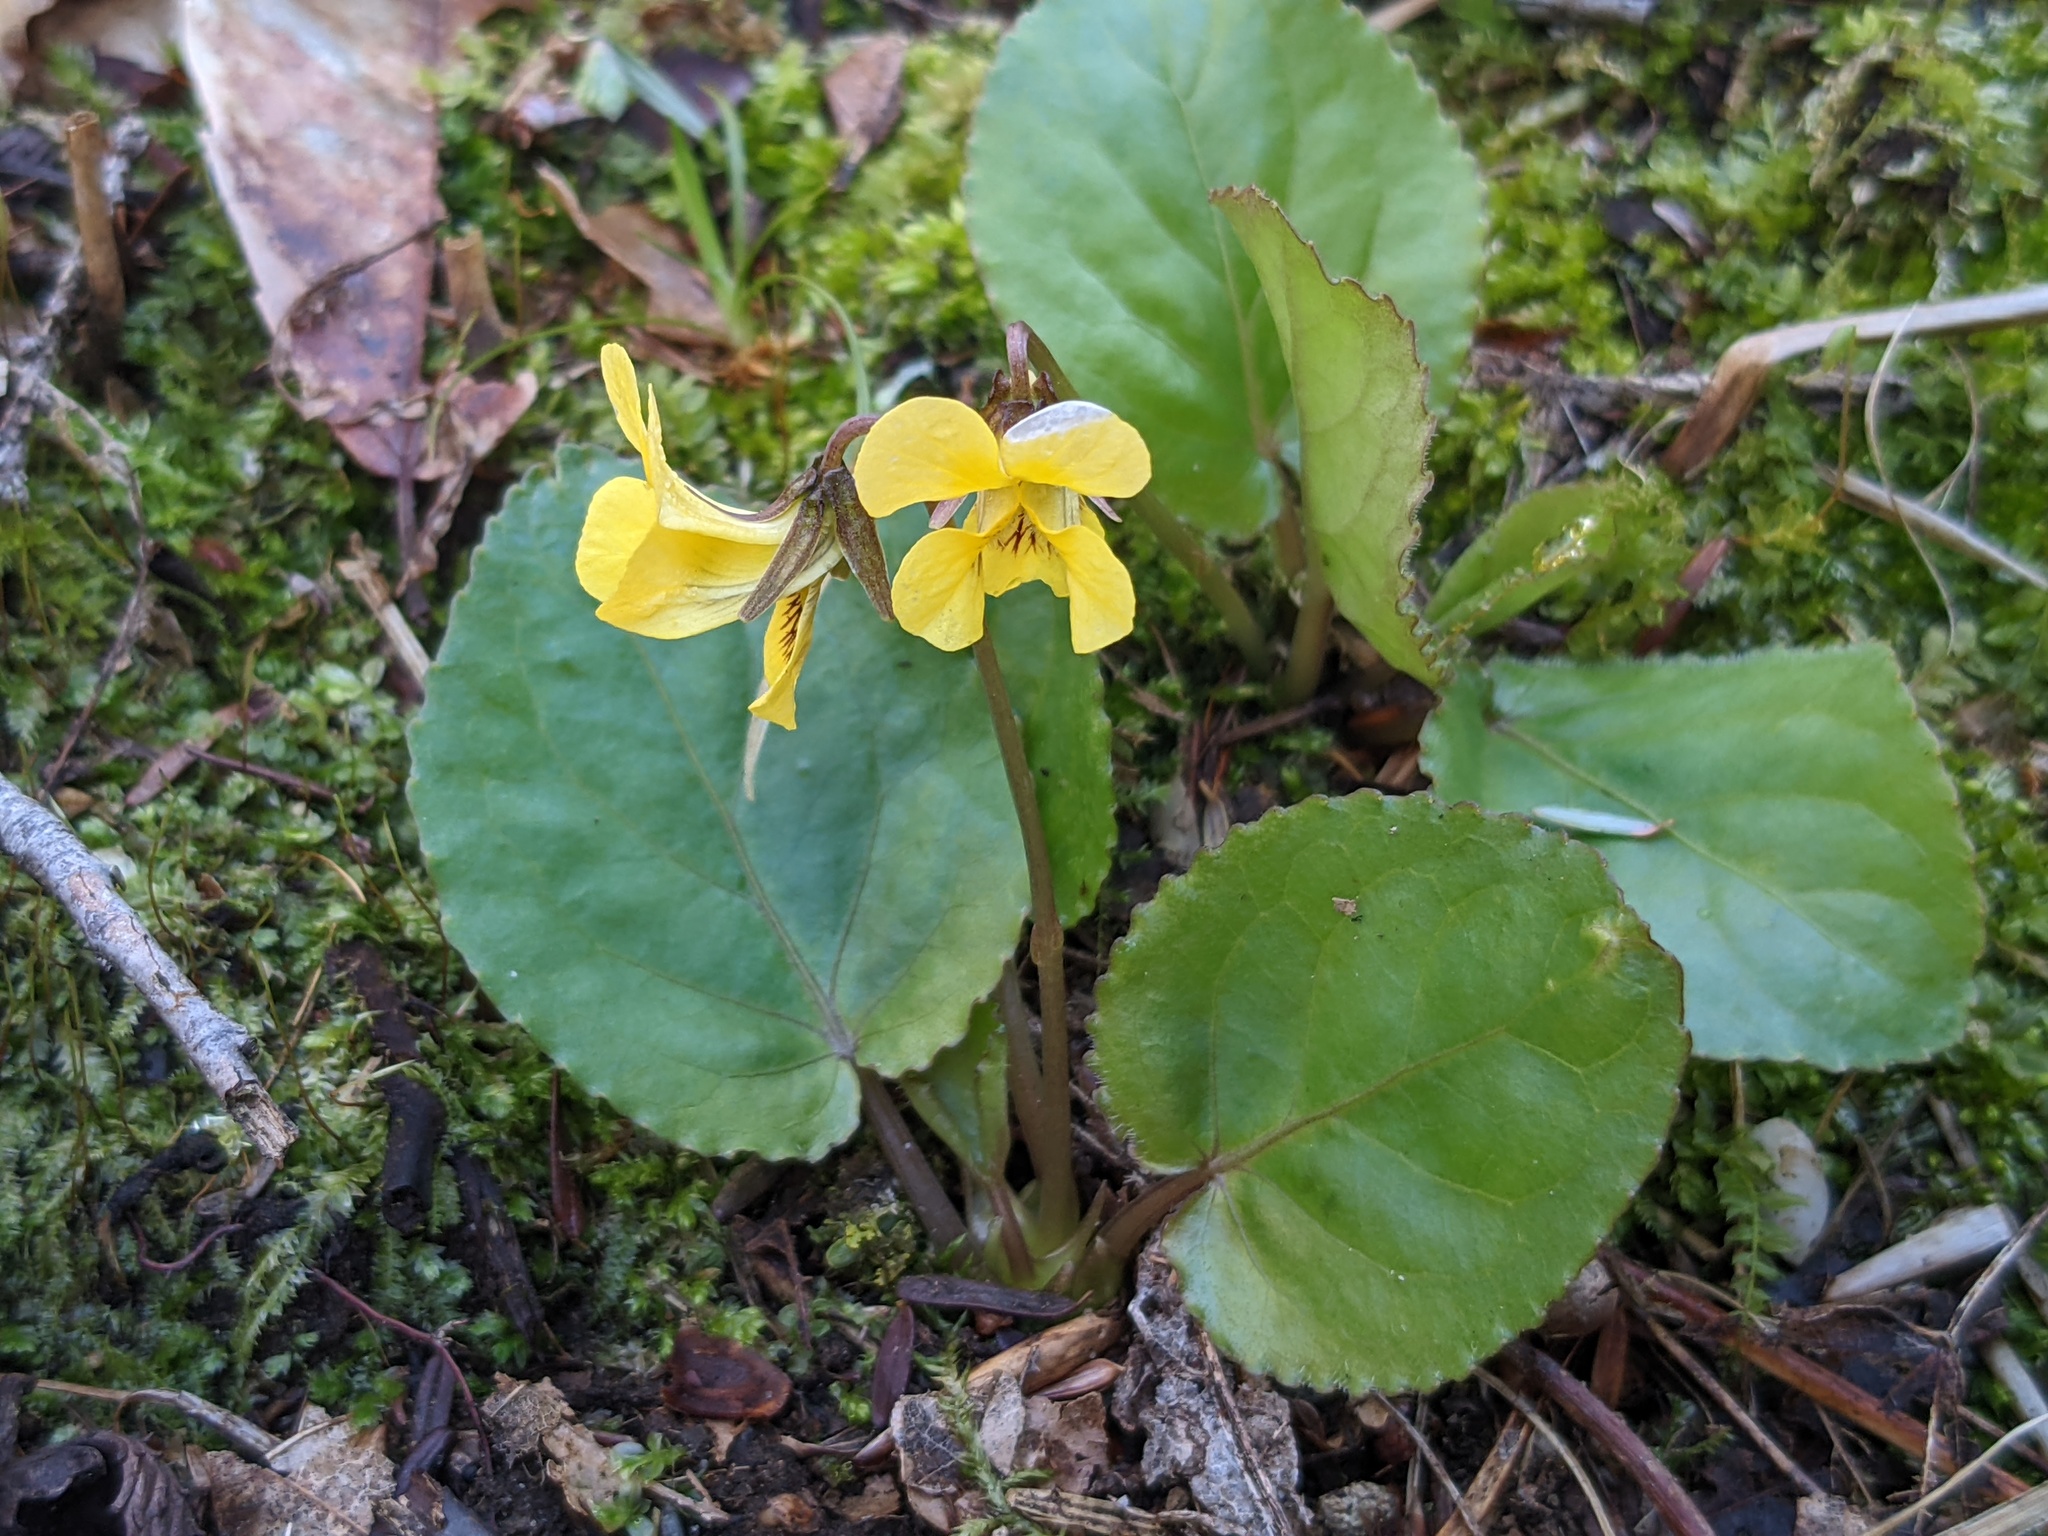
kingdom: Plantae
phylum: Tracheophyta
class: Magnoliopsida
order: Malpighiales
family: Violaceae
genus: Viola
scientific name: Viola rotundifolia
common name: Early yellow violet
